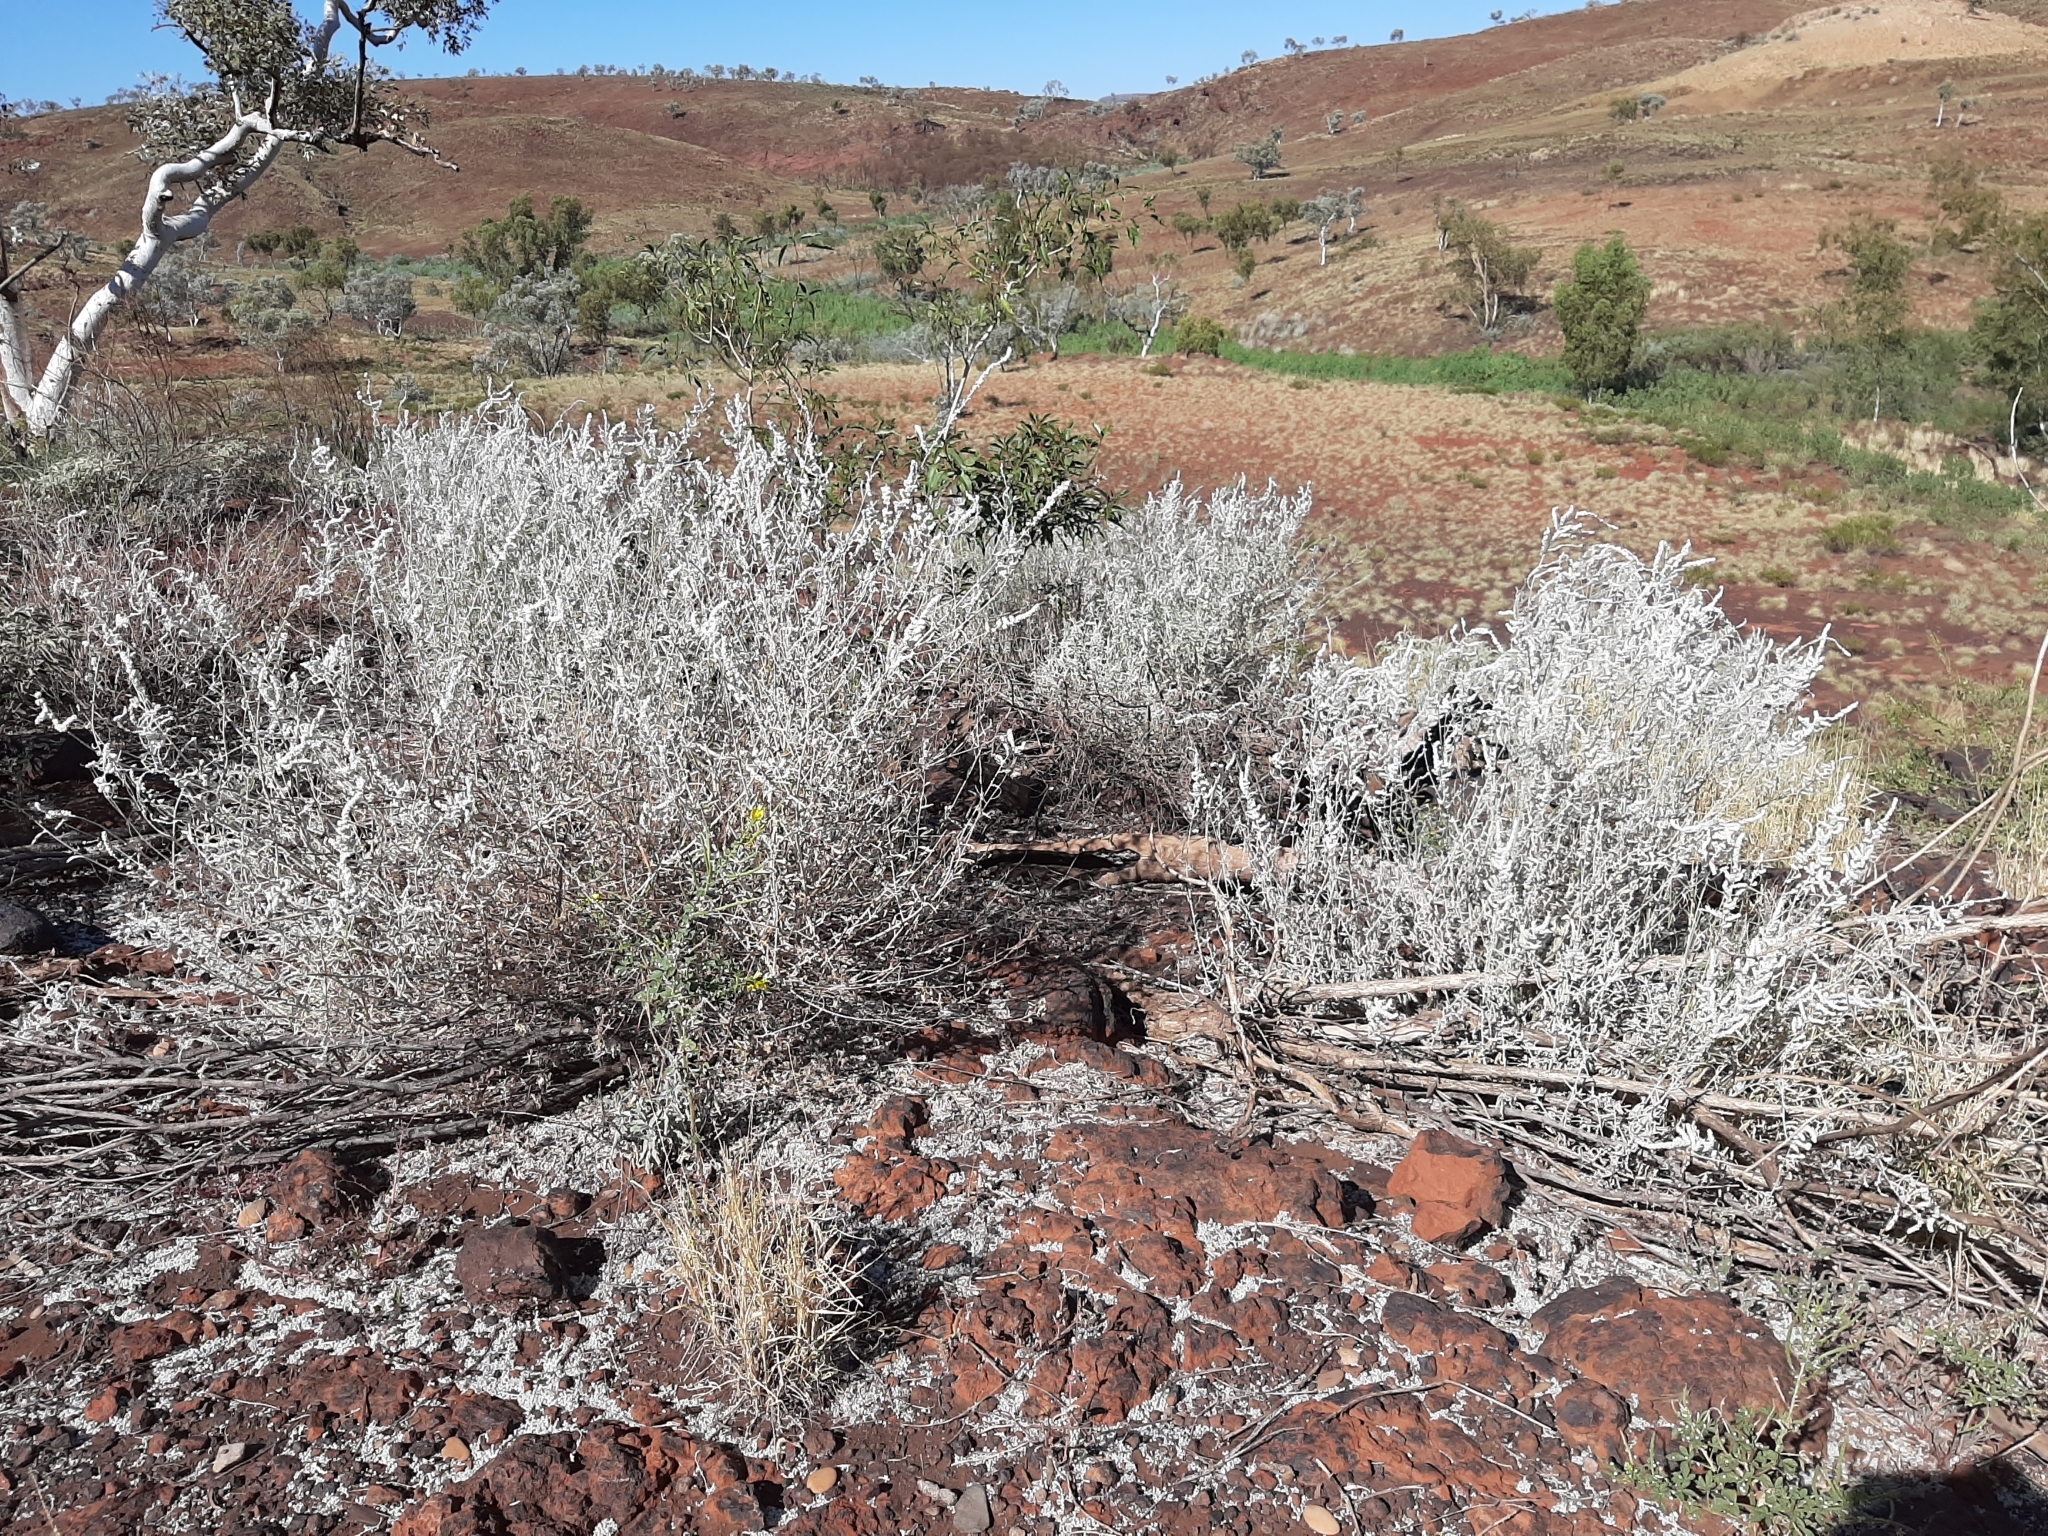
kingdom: Plantae
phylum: Tracheophyta
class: Magnoliopsida
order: Caryophyllales
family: Amaranthaceae
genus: Aerva
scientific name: Aerva javanica
